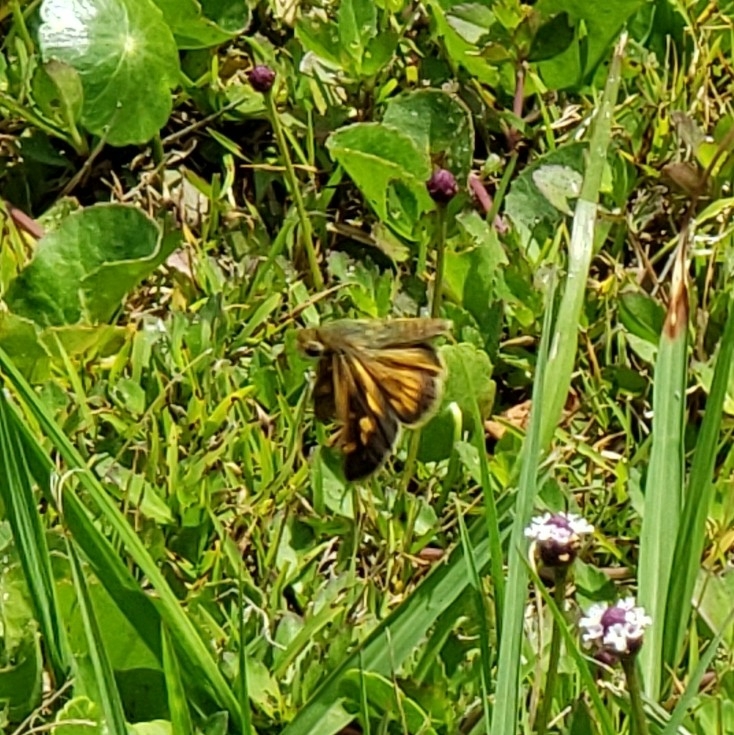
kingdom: Animalia
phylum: Arthropoda
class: Insecta
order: Lepidoptera
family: Hesperiidae
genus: Hylephila
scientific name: Hylephila phyleus
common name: Fiery skipper
